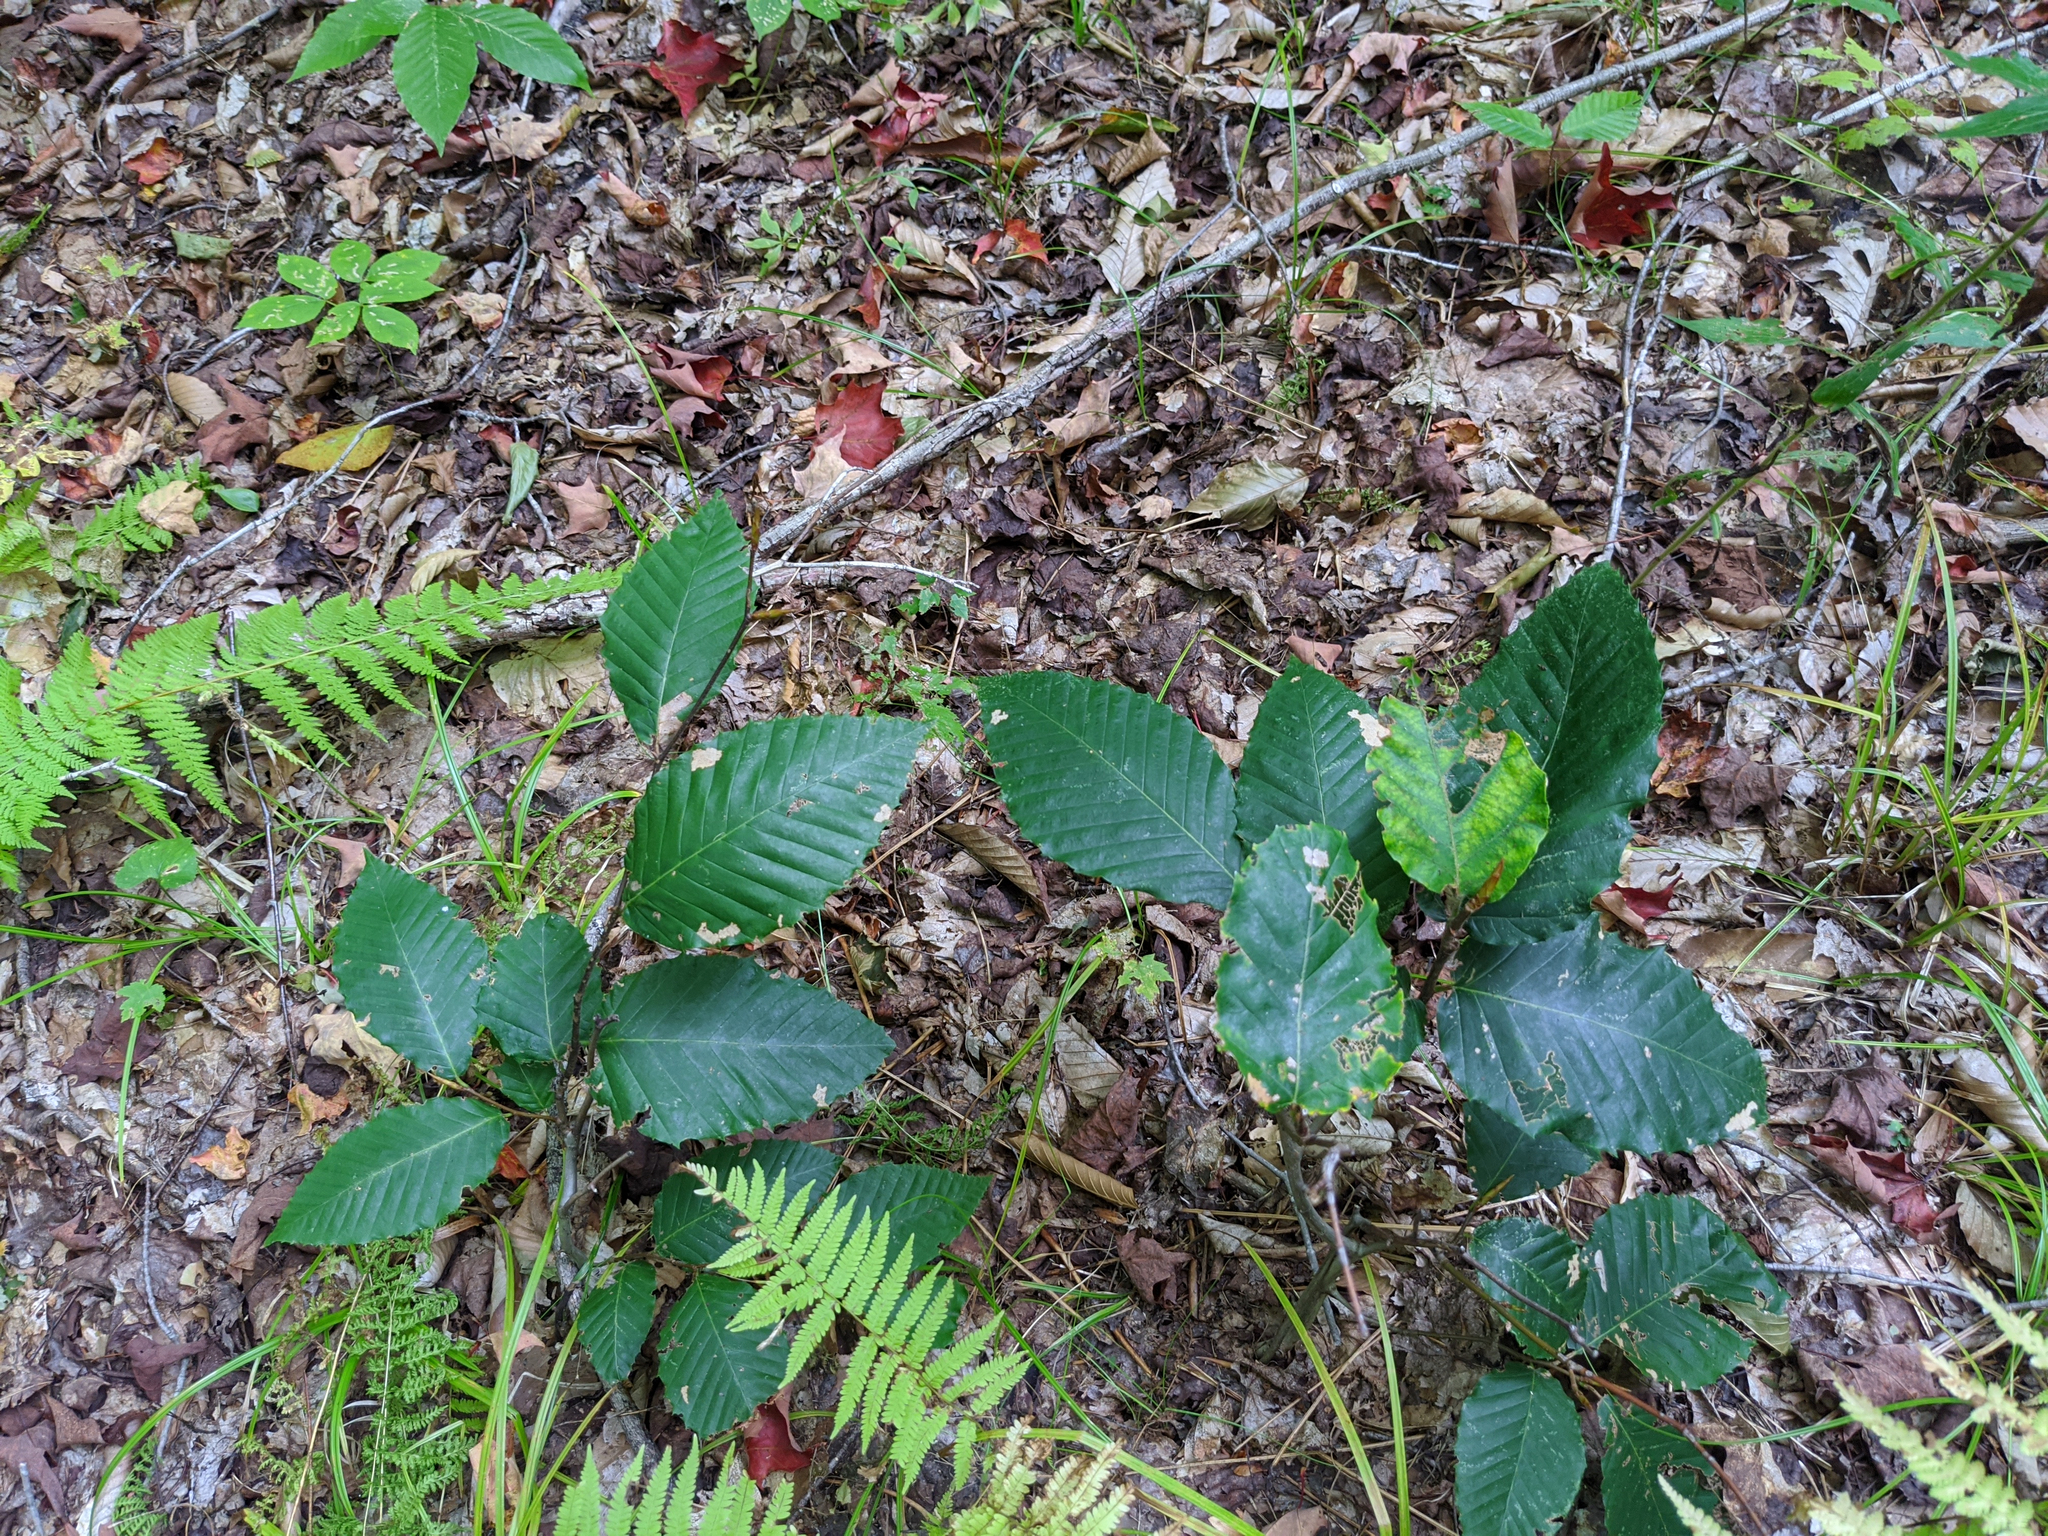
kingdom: Plantae
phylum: Tracheophyta
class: Magnoliopsida
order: Fagales
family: Fagaceae
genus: Fagus
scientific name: Fagus grandifolia
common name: American beech
